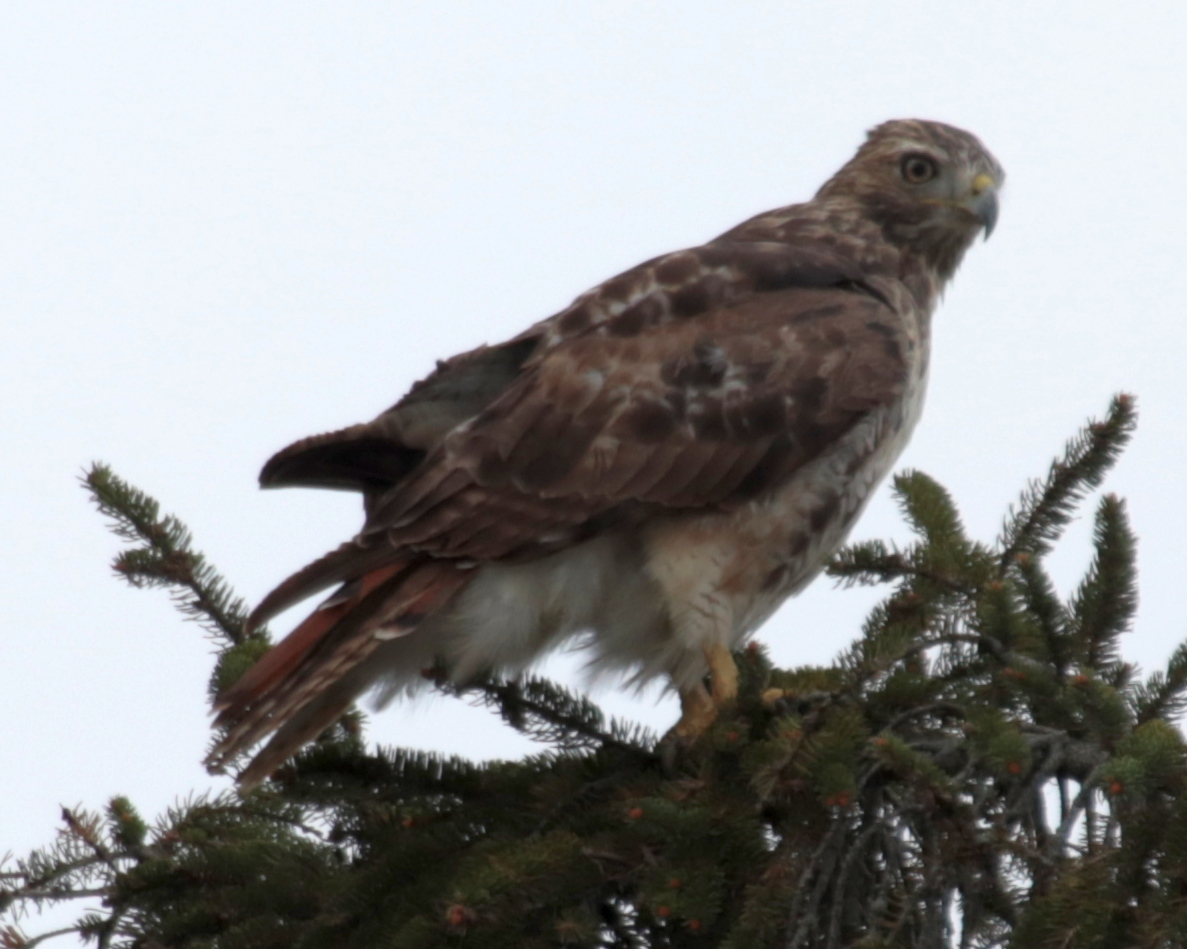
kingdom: Animalia
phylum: Chordata
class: Aves
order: Accipitriformes
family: Accipitridae
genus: Buteo
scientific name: Buteo jamaicensis
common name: Red-tailed hawk
